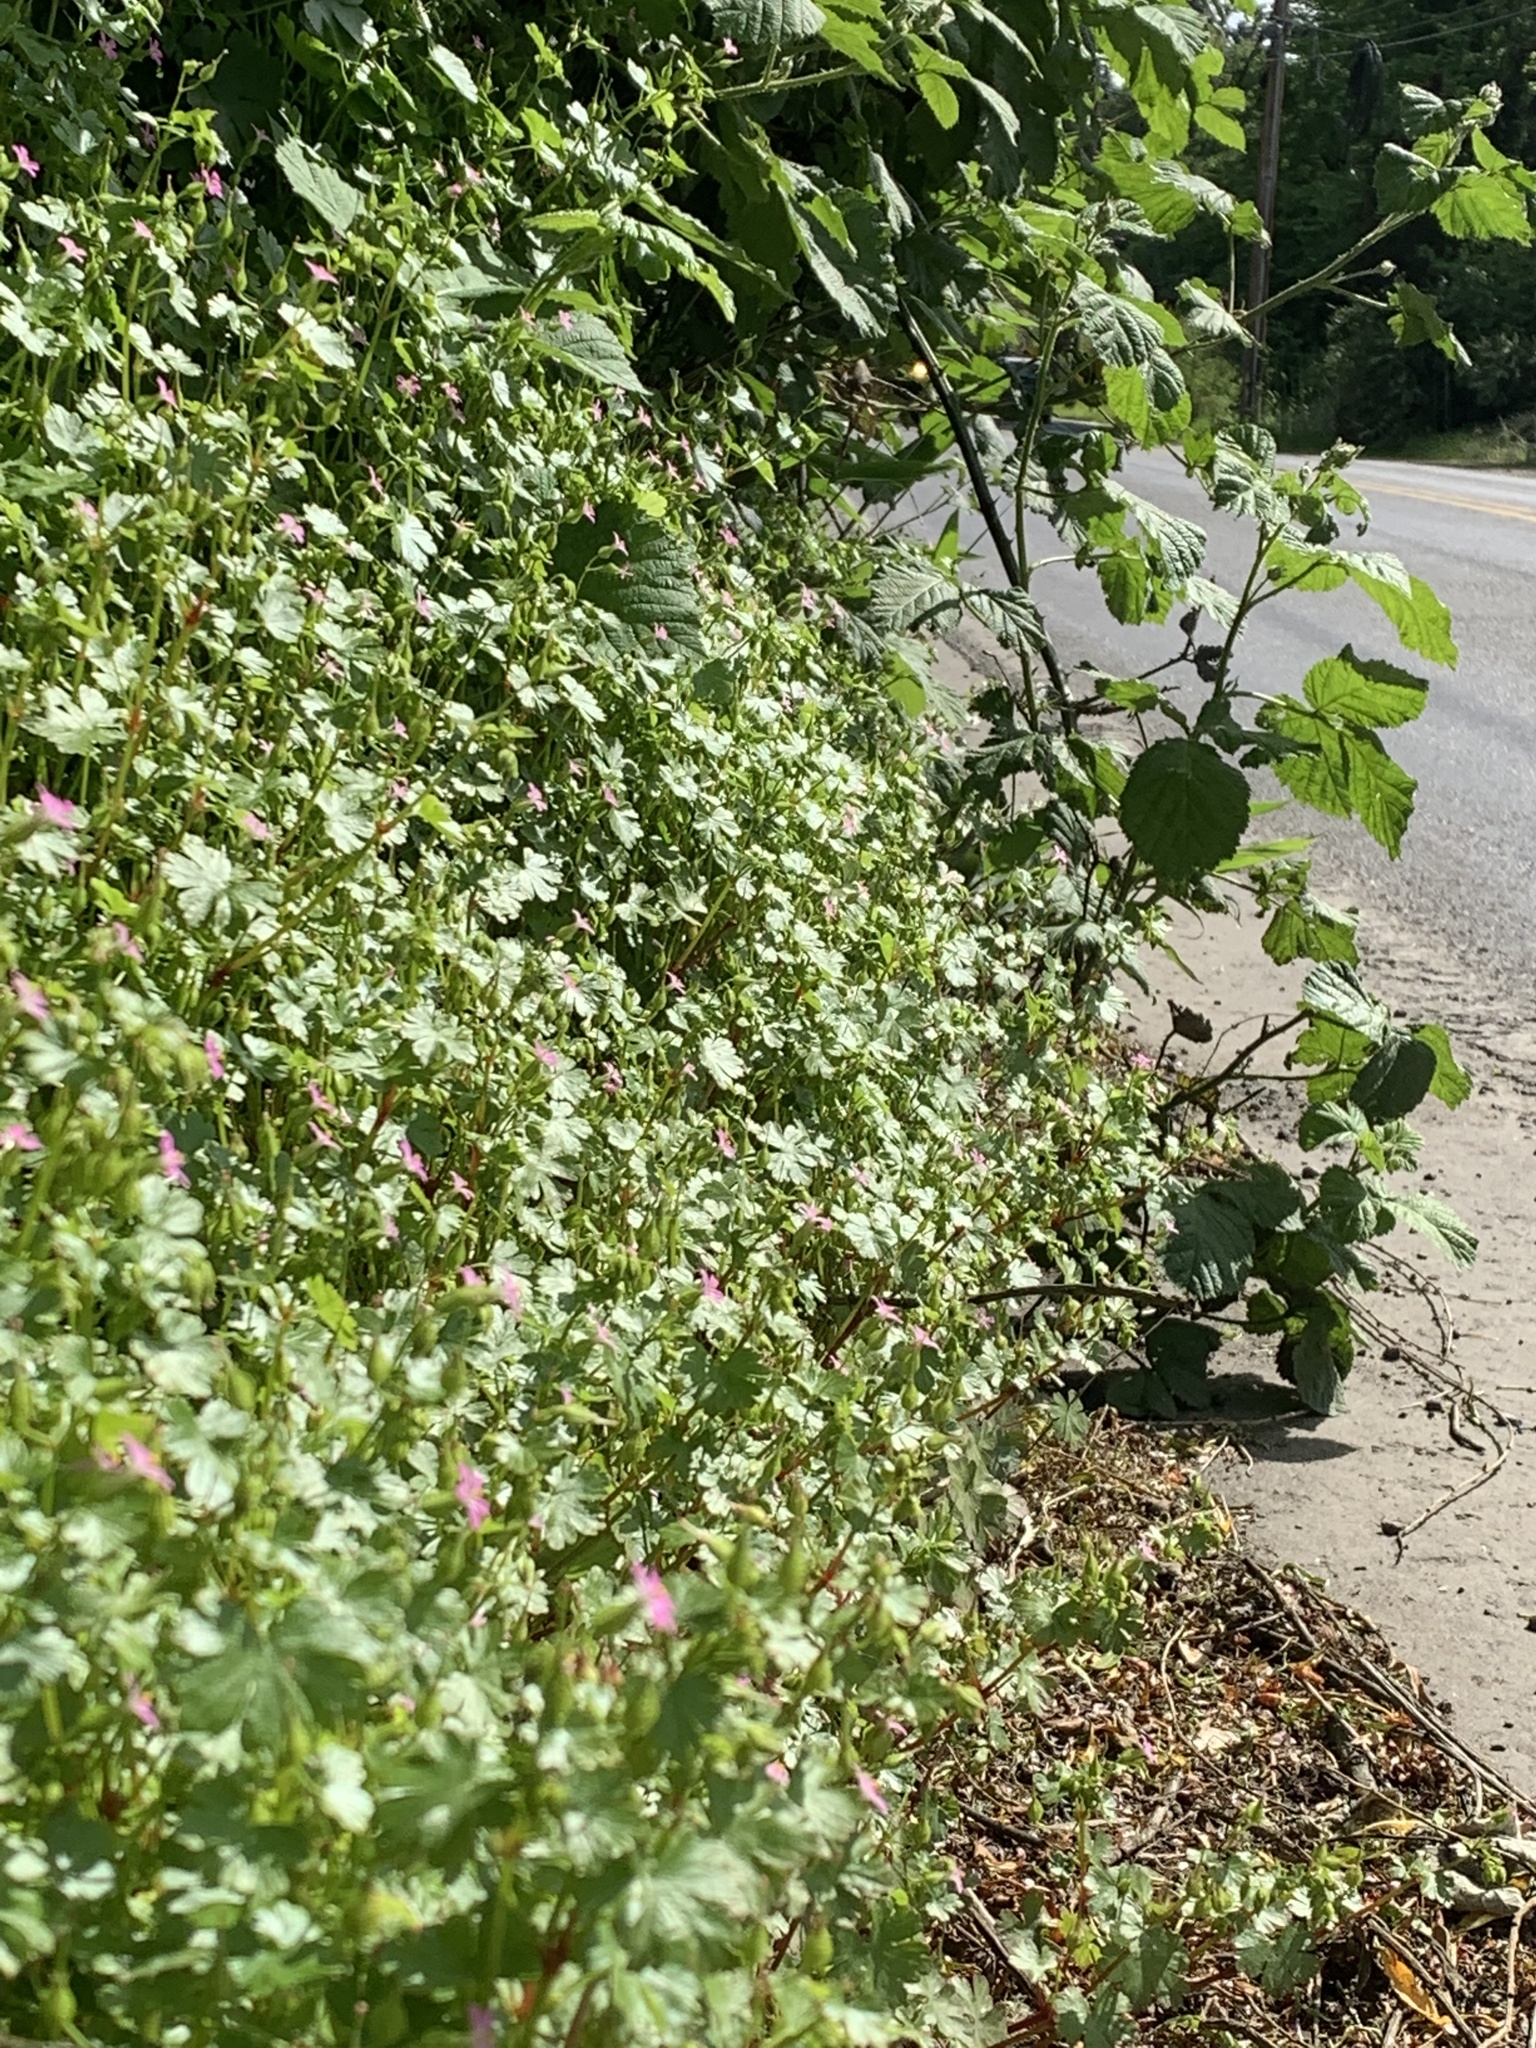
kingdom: Plantae
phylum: Tracheophyta
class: Magnoliopsida
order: Geraniales
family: Geraniaceae
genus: Geranium
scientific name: Geranium lucidum
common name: Shining crane's-bill
